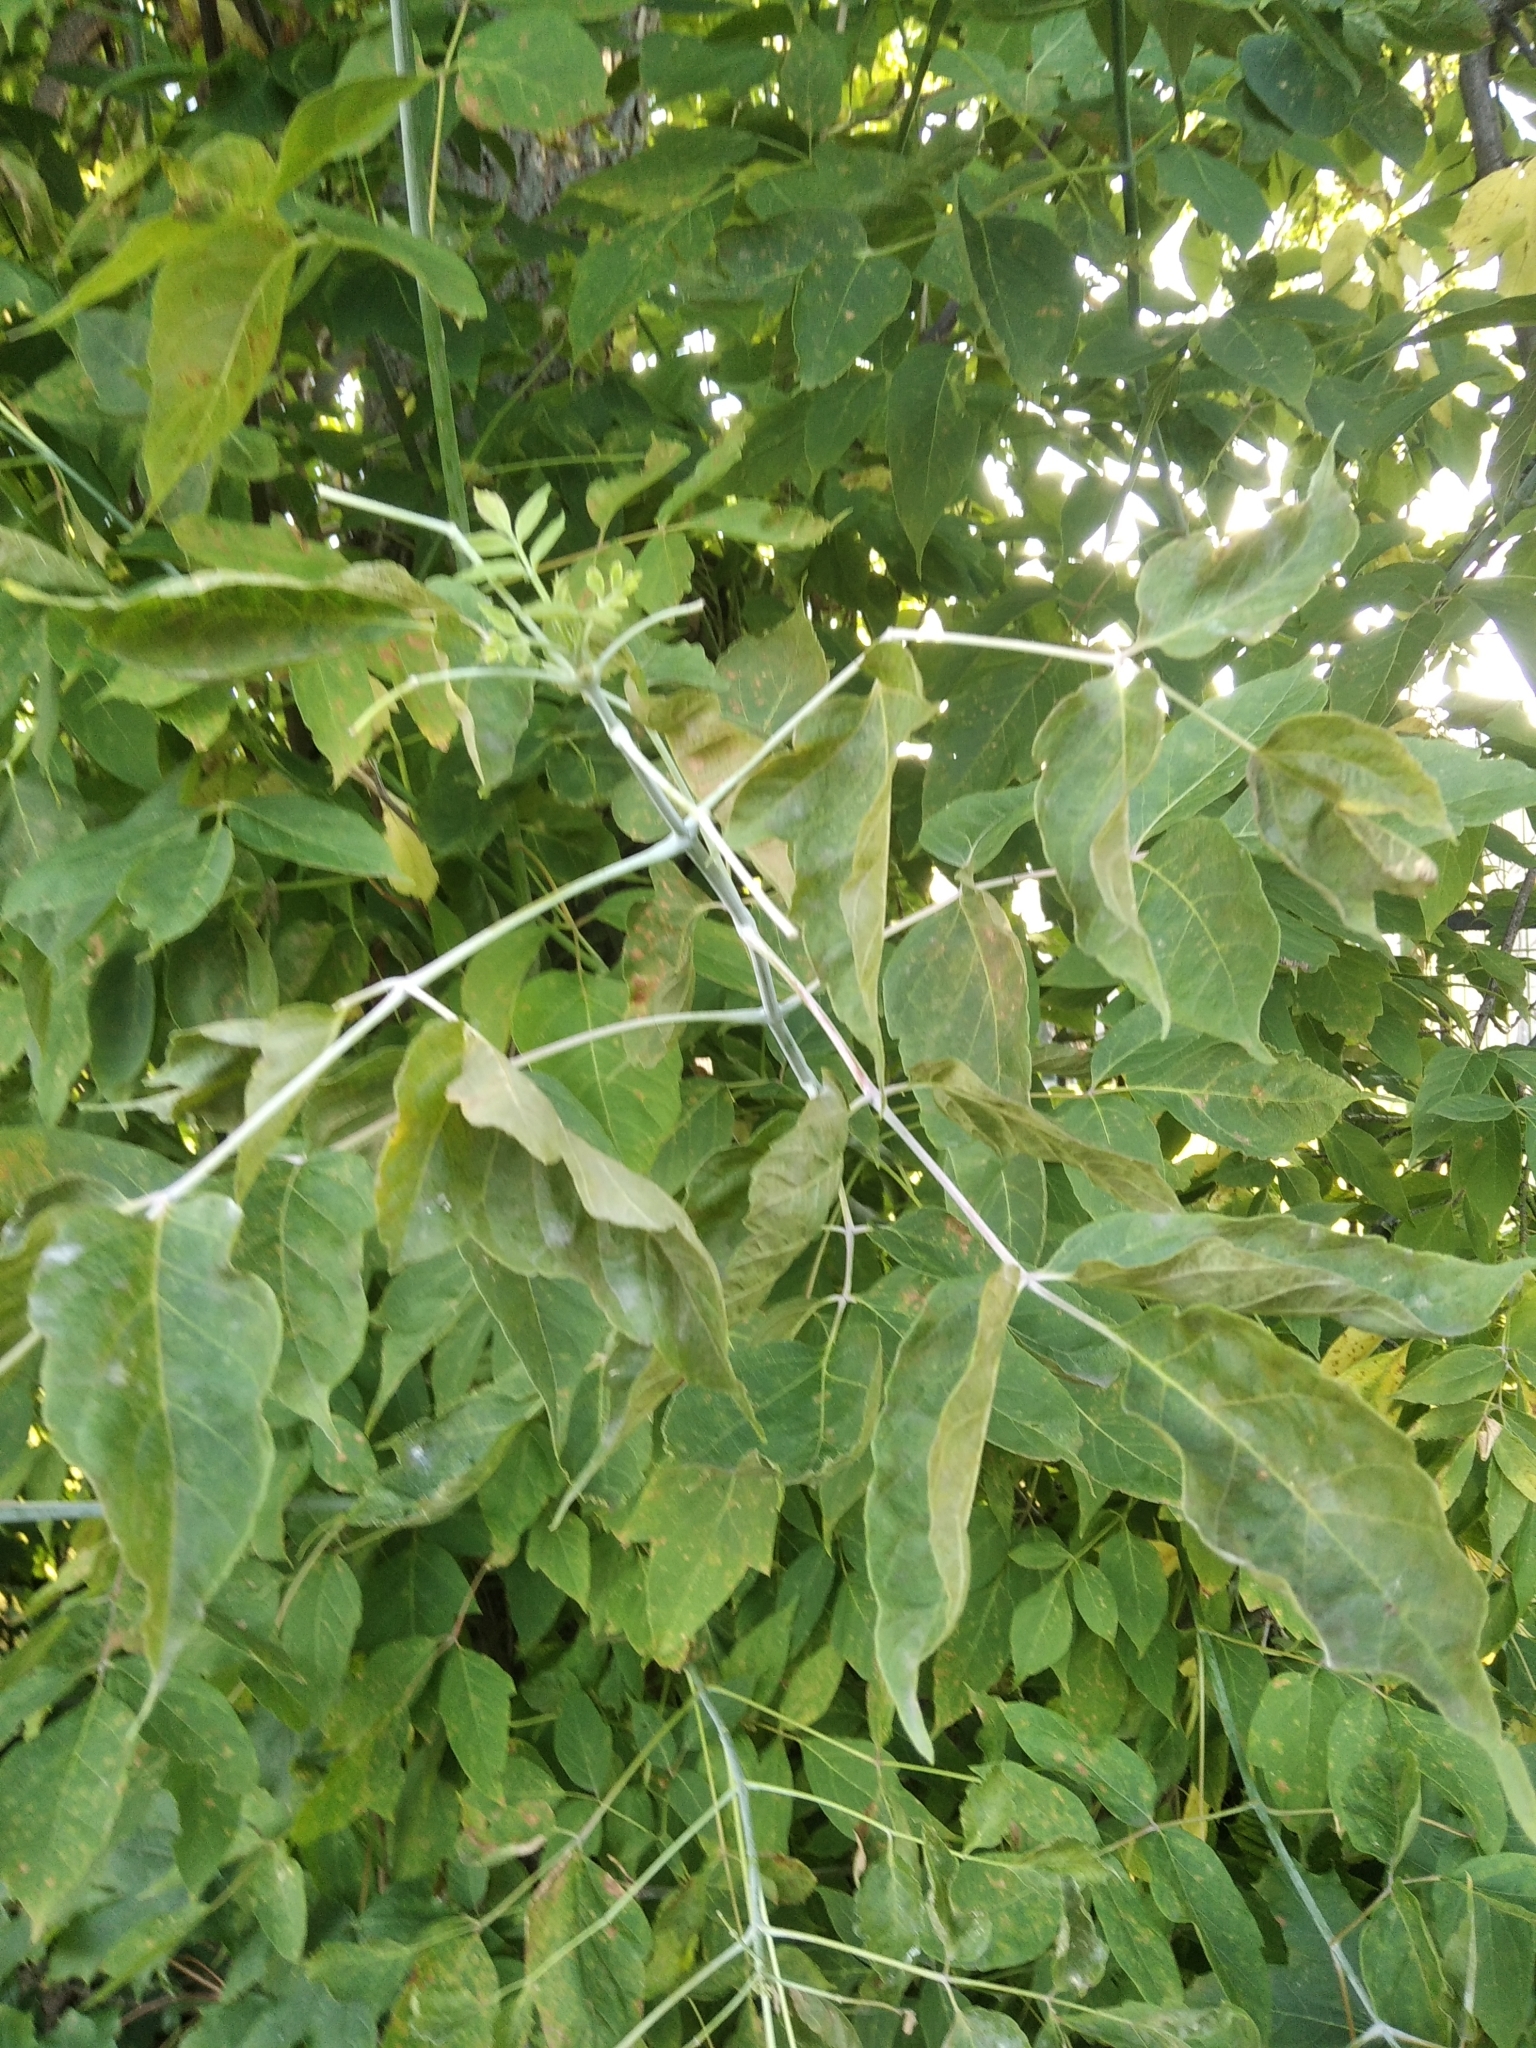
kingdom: Plantae
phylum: Tracheophyta
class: Magnoliopsida
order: Sapindales
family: Sapindaceae
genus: Acer
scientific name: Acer negundo
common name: Ashleaf maple
